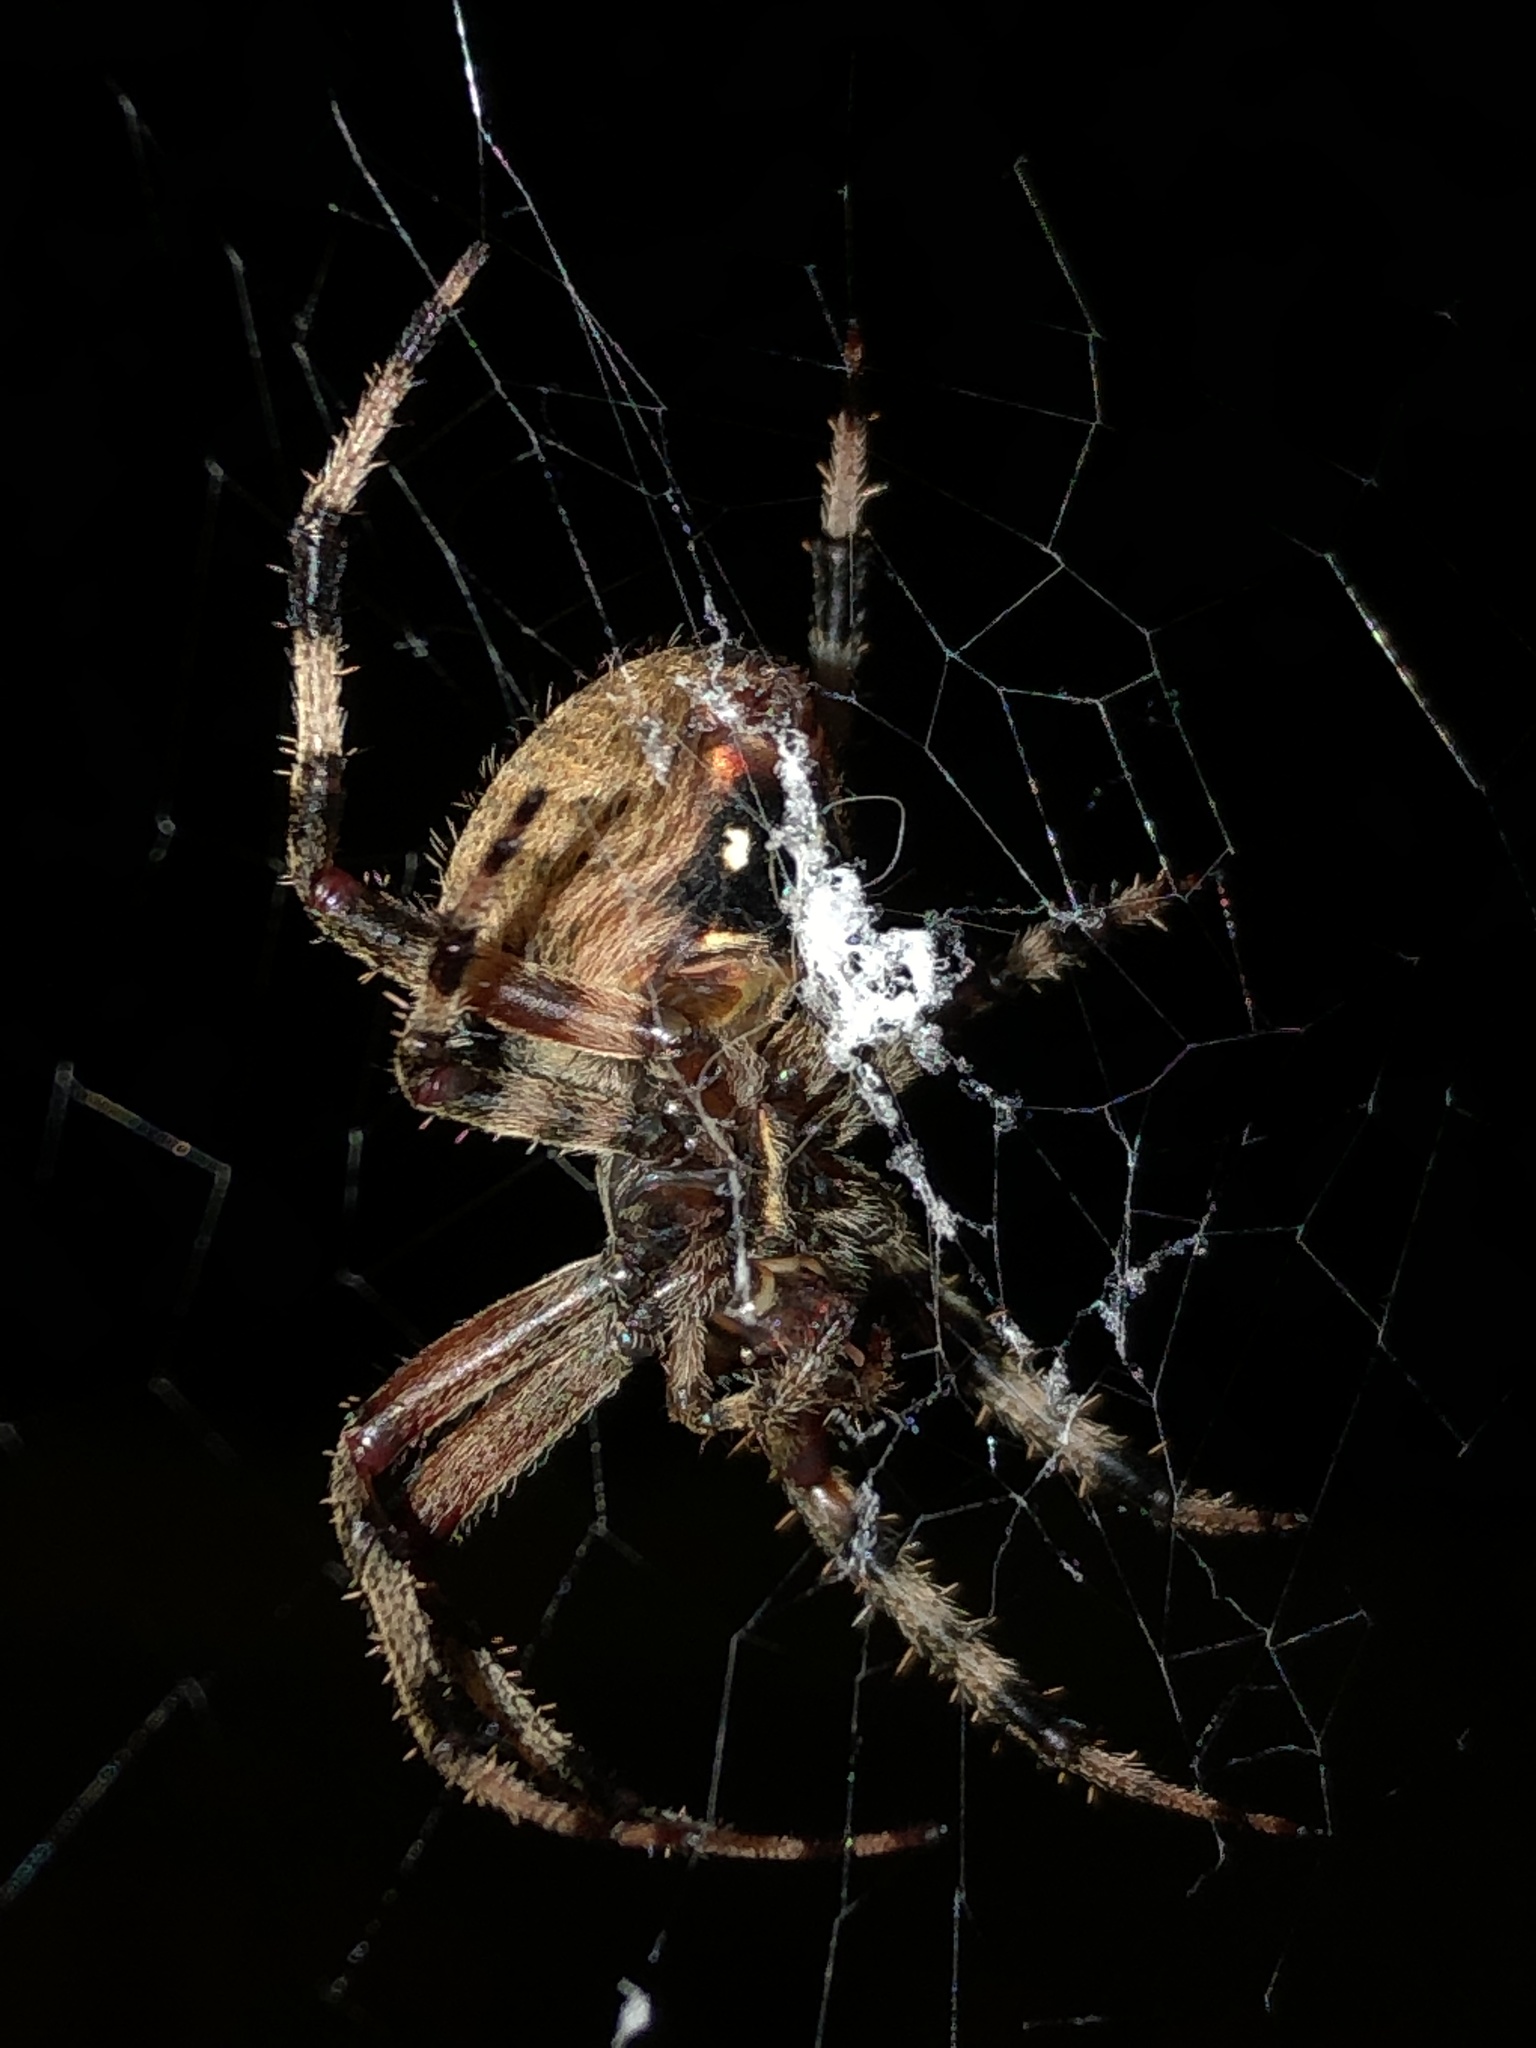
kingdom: Animalia
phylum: Arthropoda
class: Arachnida
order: Araneae
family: Araneidae
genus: Neoscona
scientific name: Neoscona crucifera
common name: Spotted orbweaver
